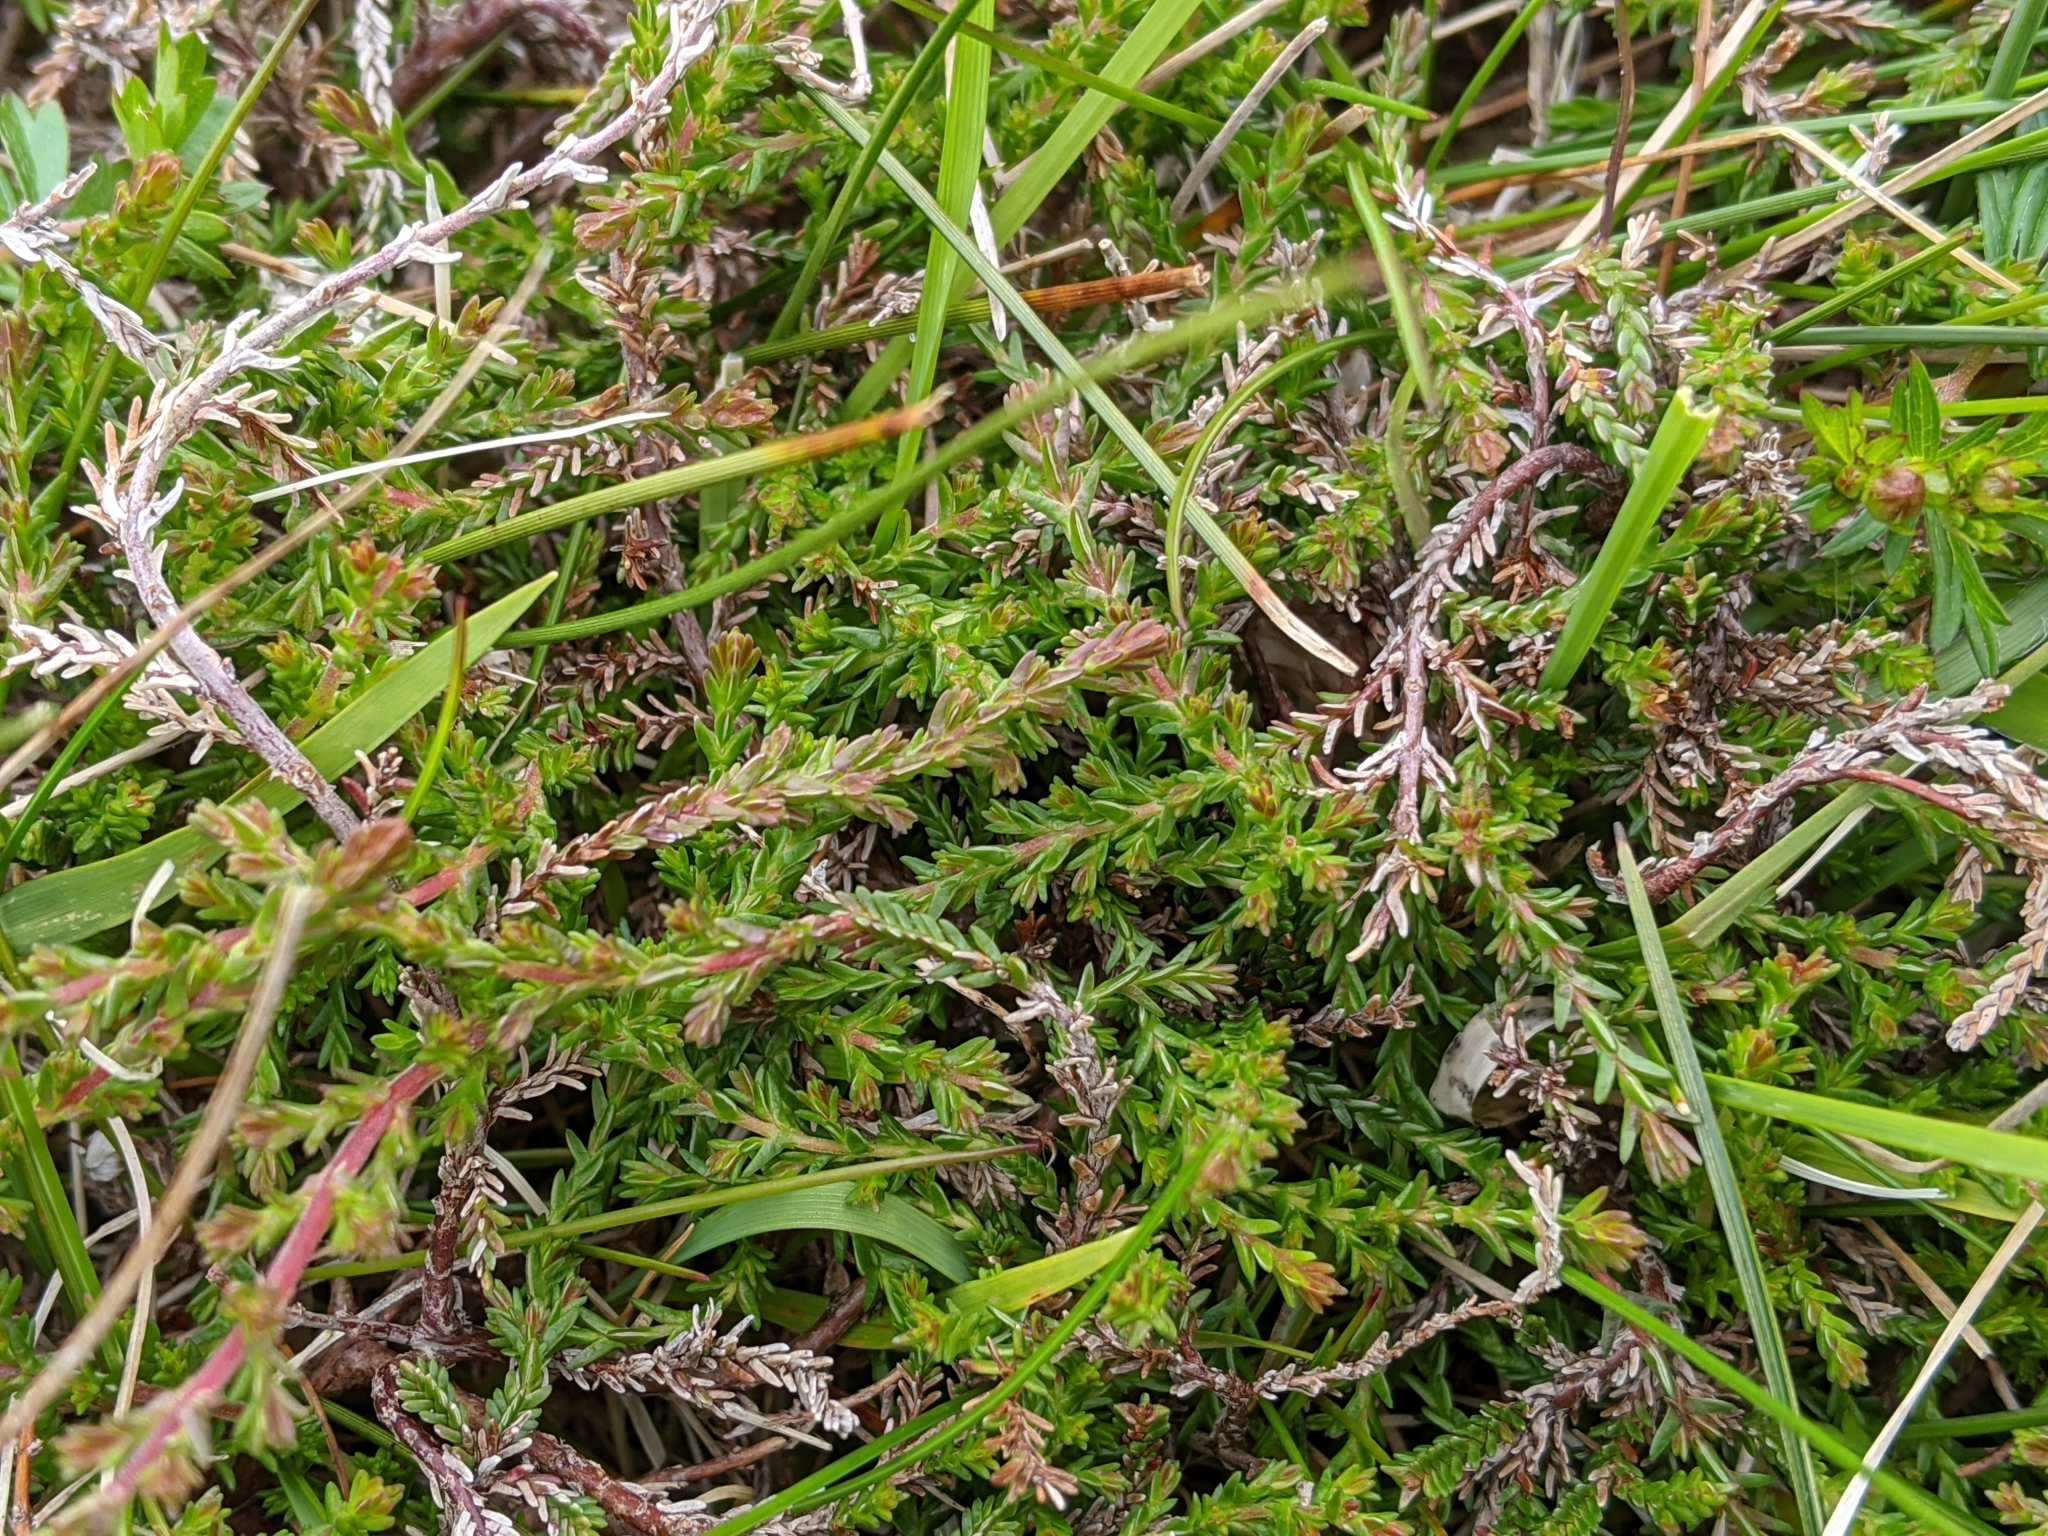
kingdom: Plantae
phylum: Tracheophyta
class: Magnoliopsida
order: Ericales
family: Ericaceae
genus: Calluna
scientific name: Calluna vulgaris
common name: Heather
